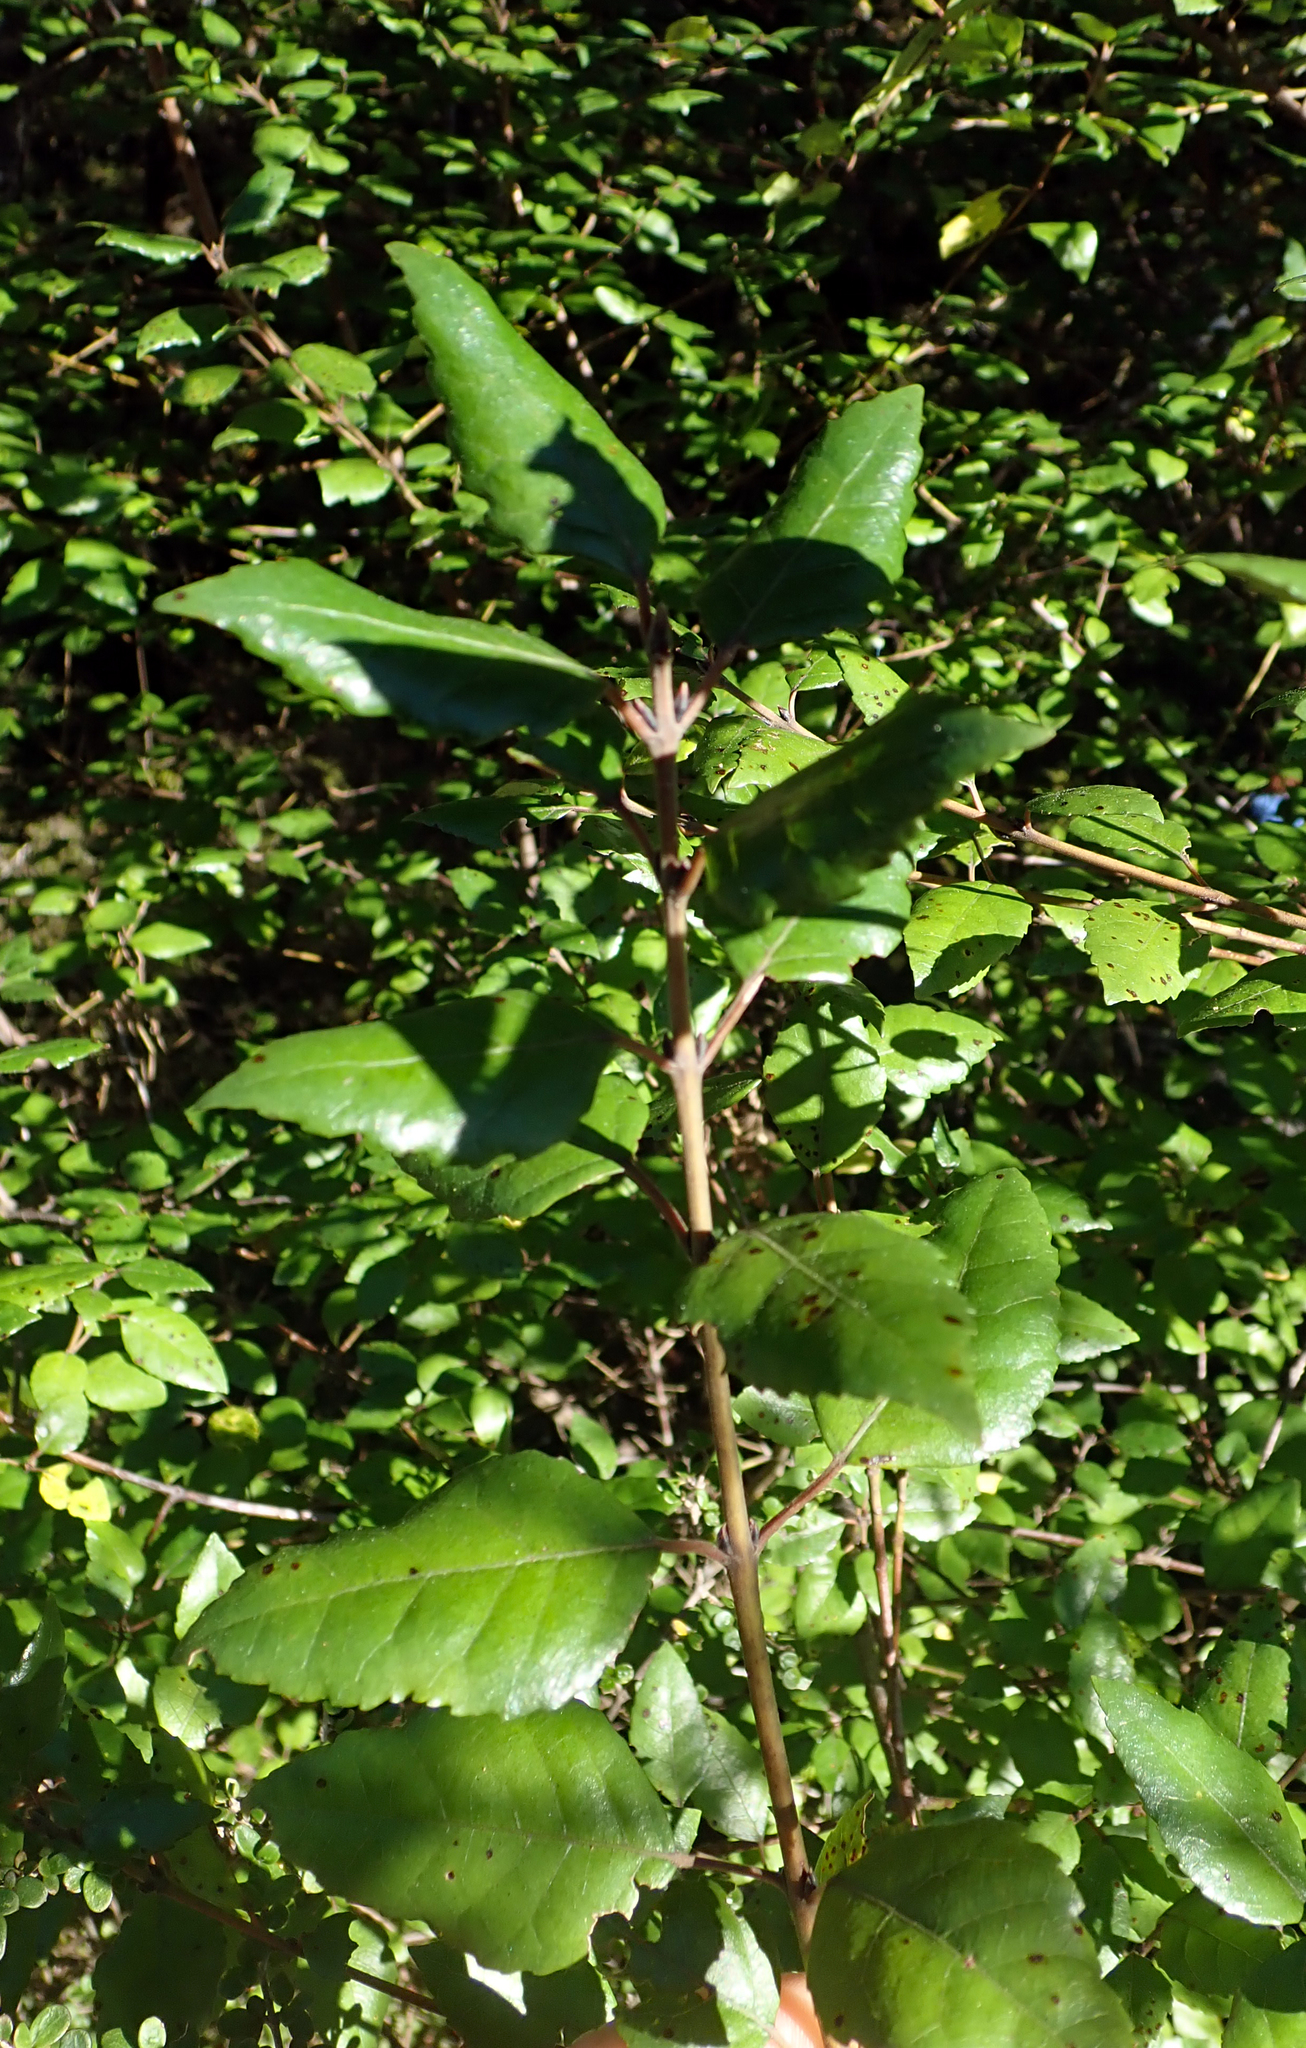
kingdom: Plantae
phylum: Tracheophyta
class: Magnoliopsida
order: Oxalidales
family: Elaeocarpaceae
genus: Aristotelia
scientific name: Aristotelia
